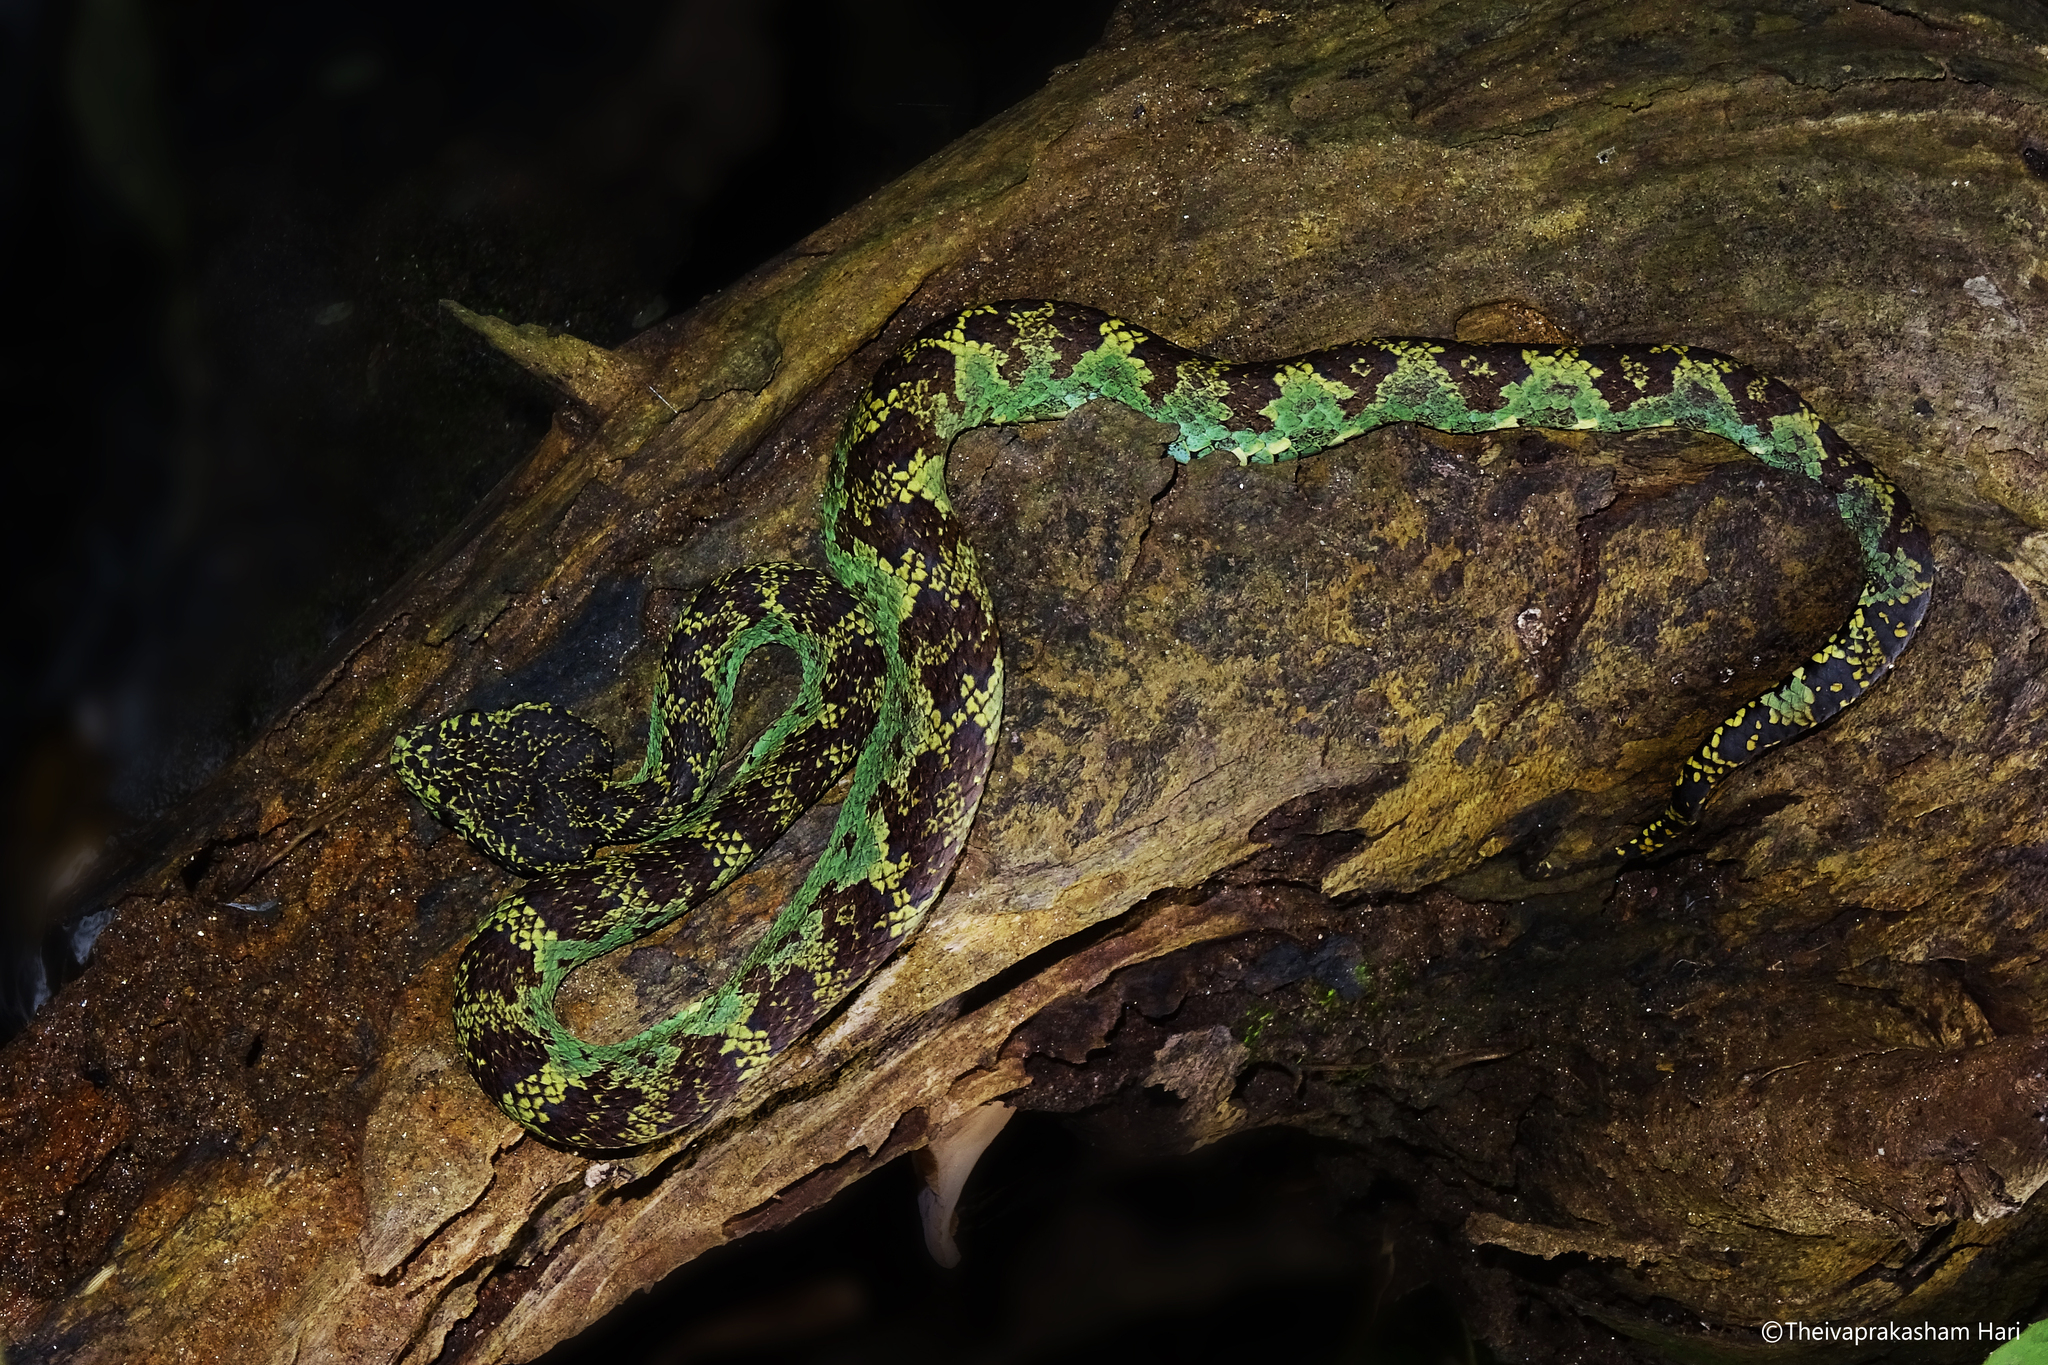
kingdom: Animalia
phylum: Chordata
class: Squamata
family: Viperidae
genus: Craspedocephalus
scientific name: Craspedocephalus malabaricus
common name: Malabarian pit viper
